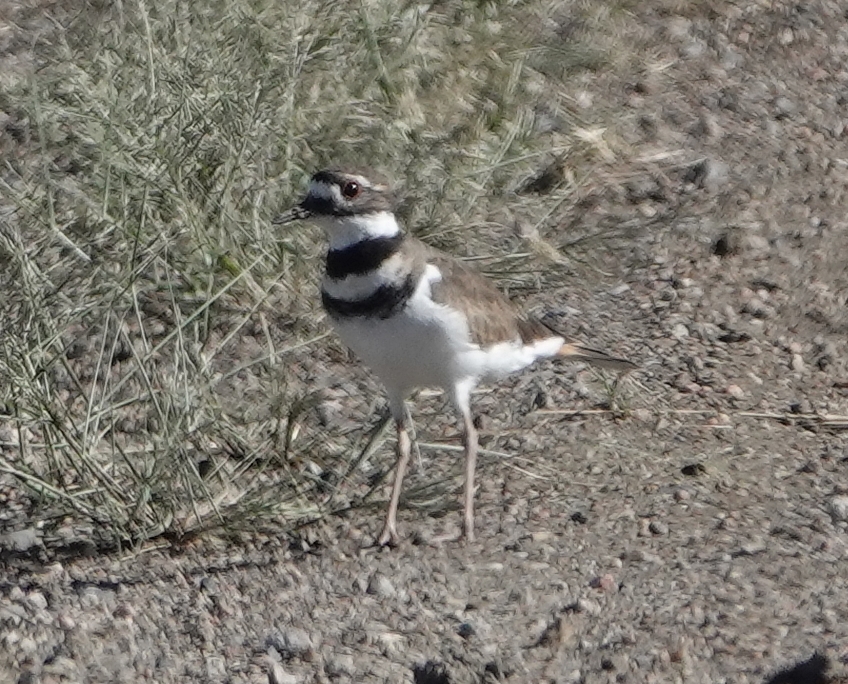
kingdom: Animalia
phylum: Chordata
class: Aves
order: Charadriiformes
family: Charadriidae
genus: Charadrius
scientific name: Charadrius vociferus
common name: Killdeer
